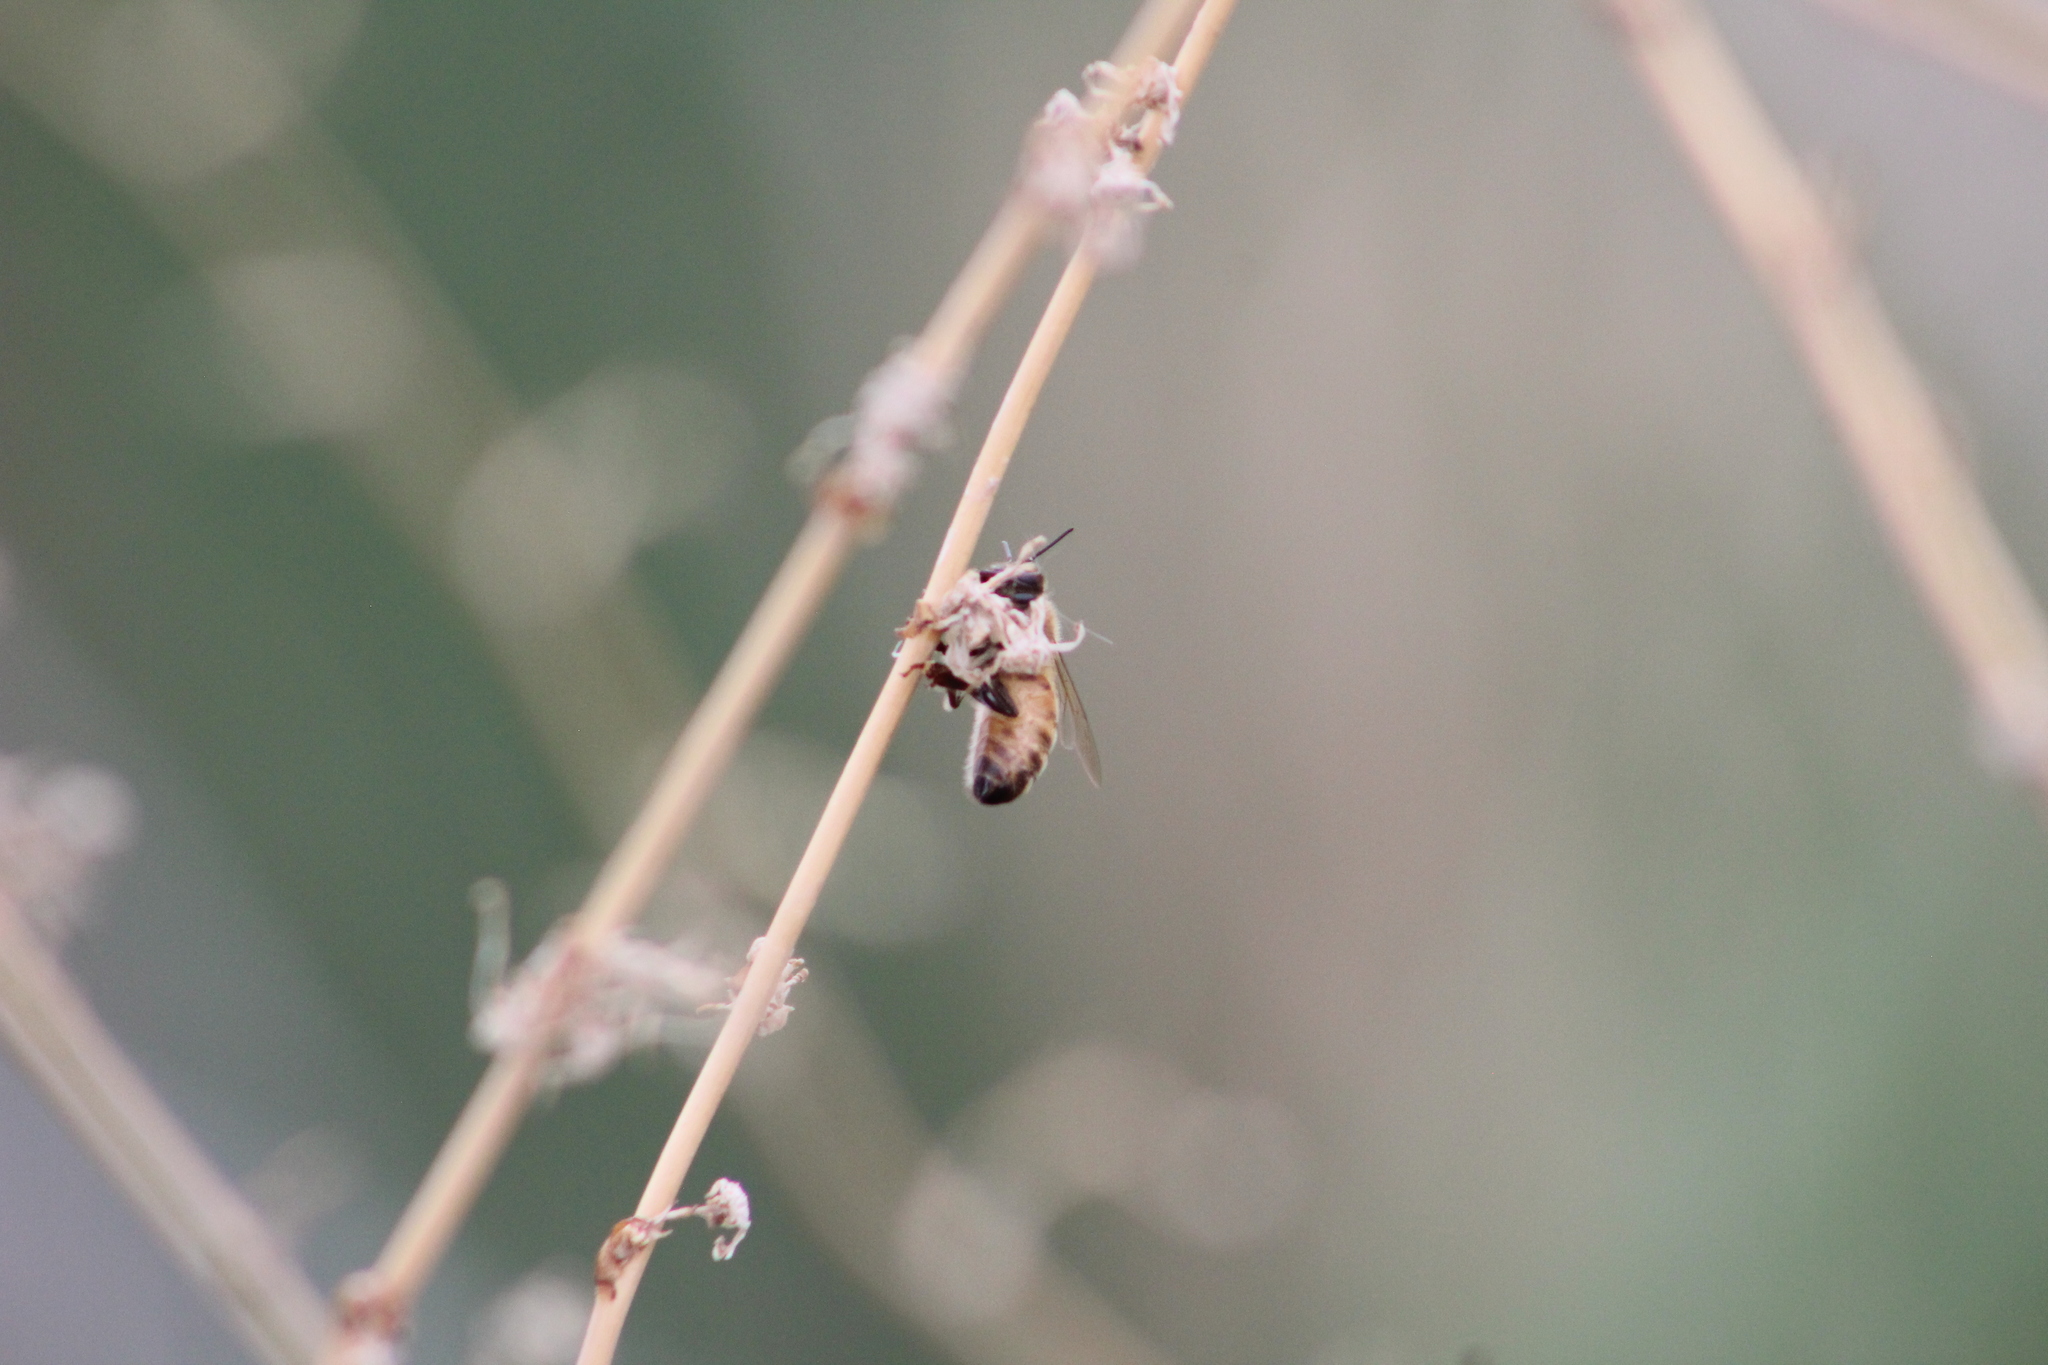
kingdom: Animalia
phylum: Arthropoda
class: Insecta
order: Hymenoptera
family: Apidae
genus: Apis
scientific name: Apis mellifera
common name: Honey bee
